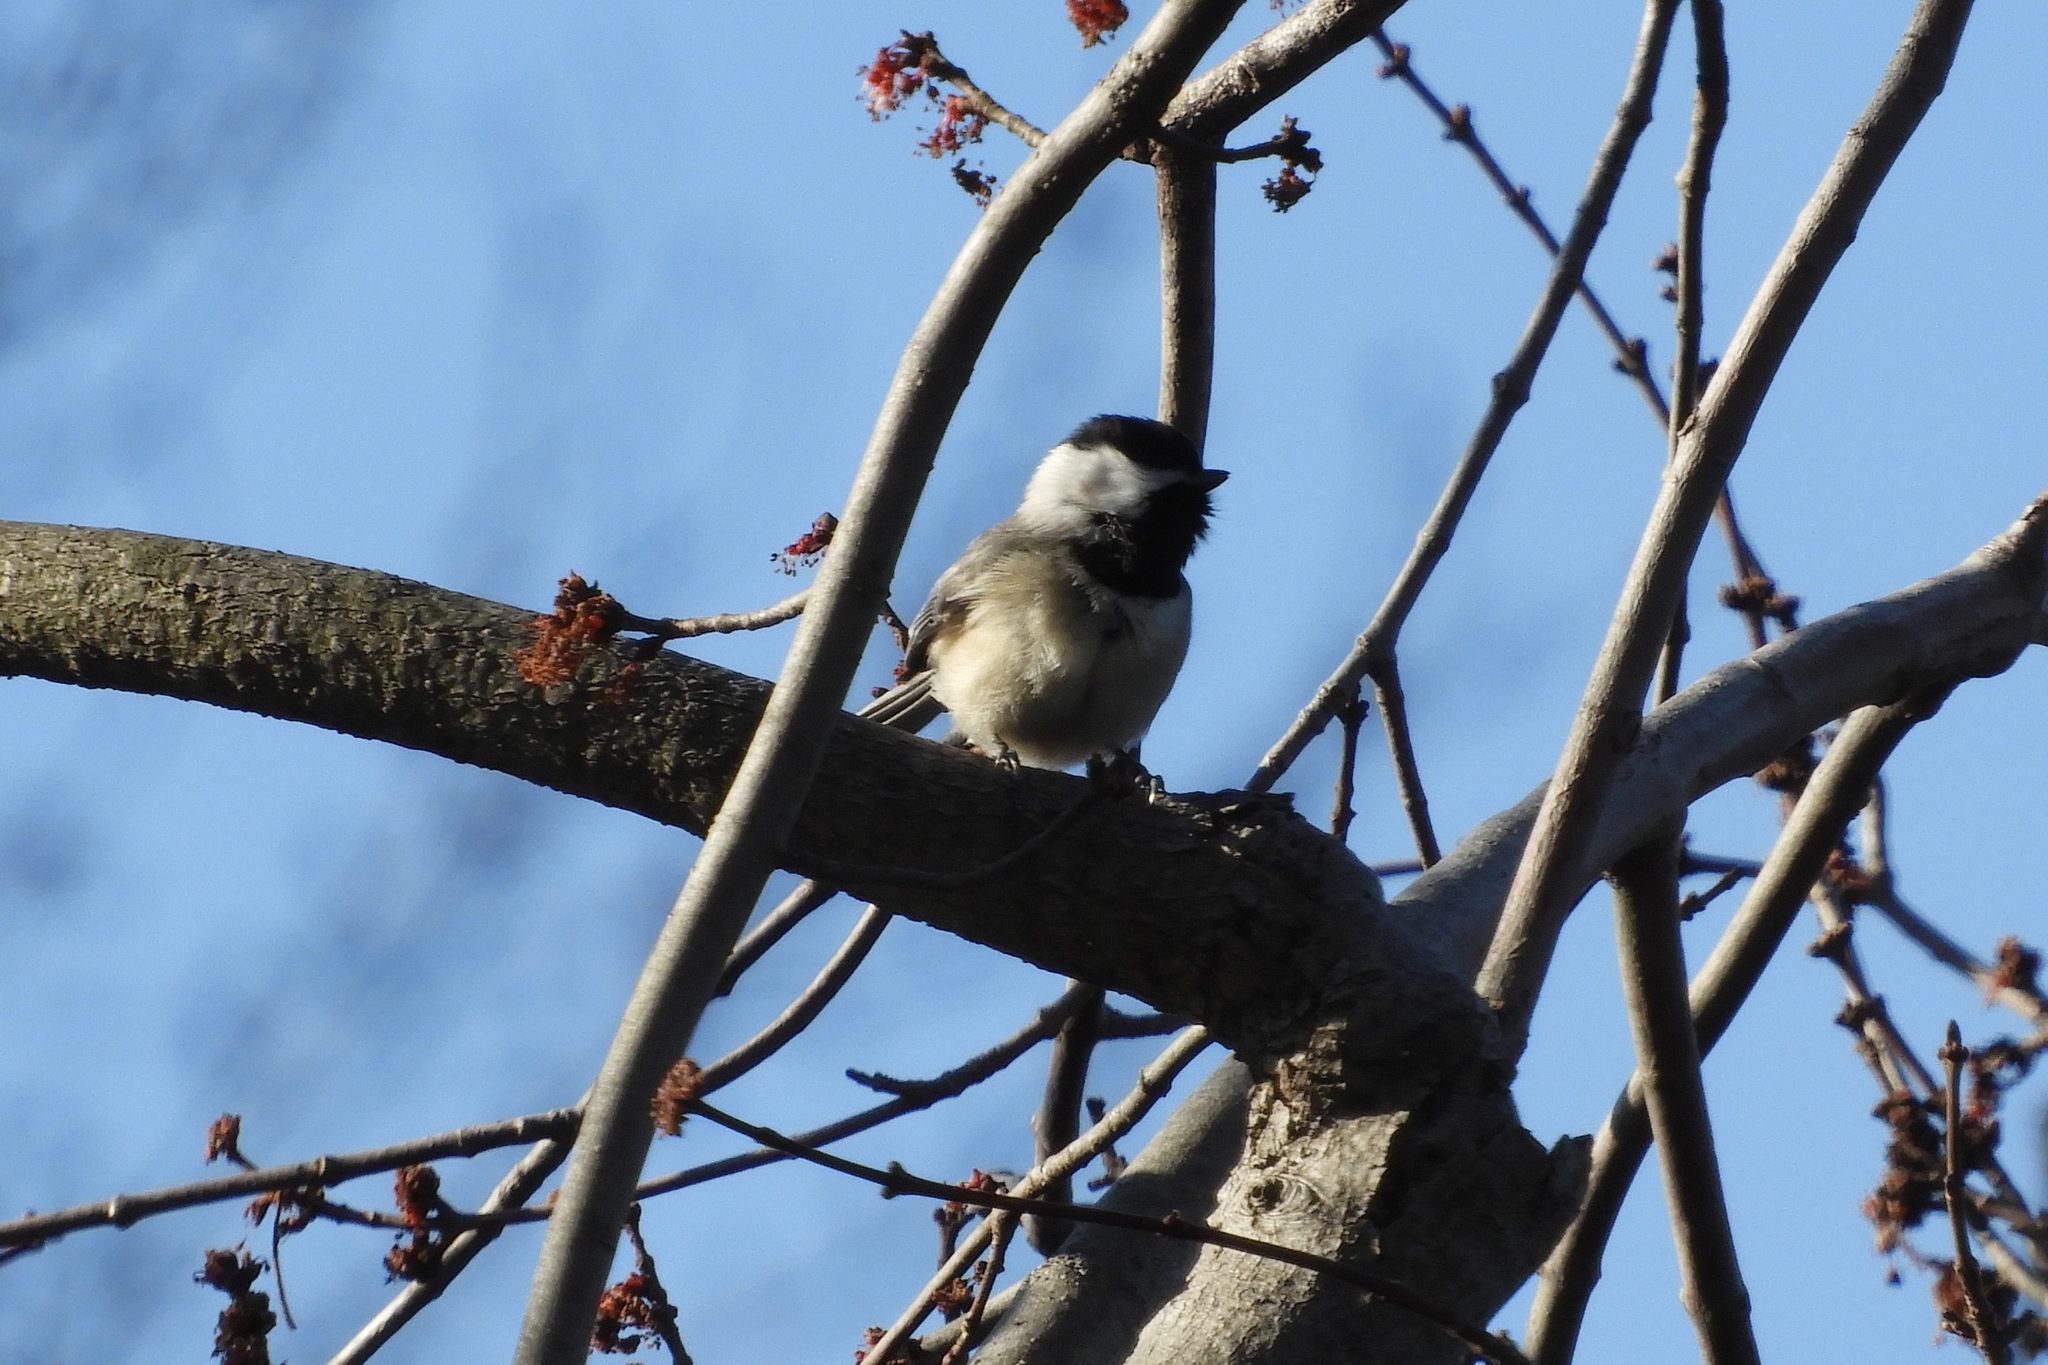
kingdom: Animalia
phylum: Chordata
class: Aves
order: Passeriformes
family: Paridae
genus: Poecile
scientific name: Poecile carolinensis
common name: Carolina chickadee
